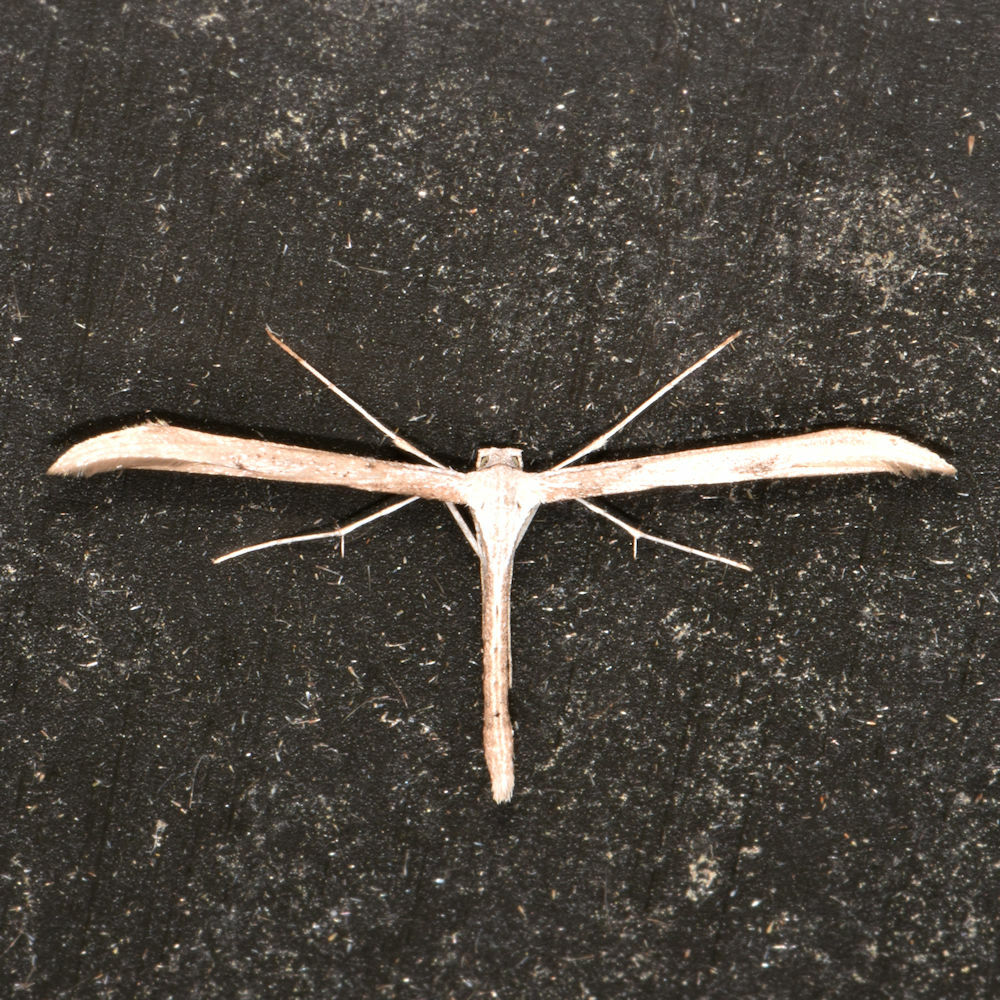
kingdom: Animalia
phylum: Arthropoda
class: Insecta
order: Lepidoptera
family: Pterophoridae
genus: Emmelina
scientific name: Emmelina monodactyla
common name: Common plume
